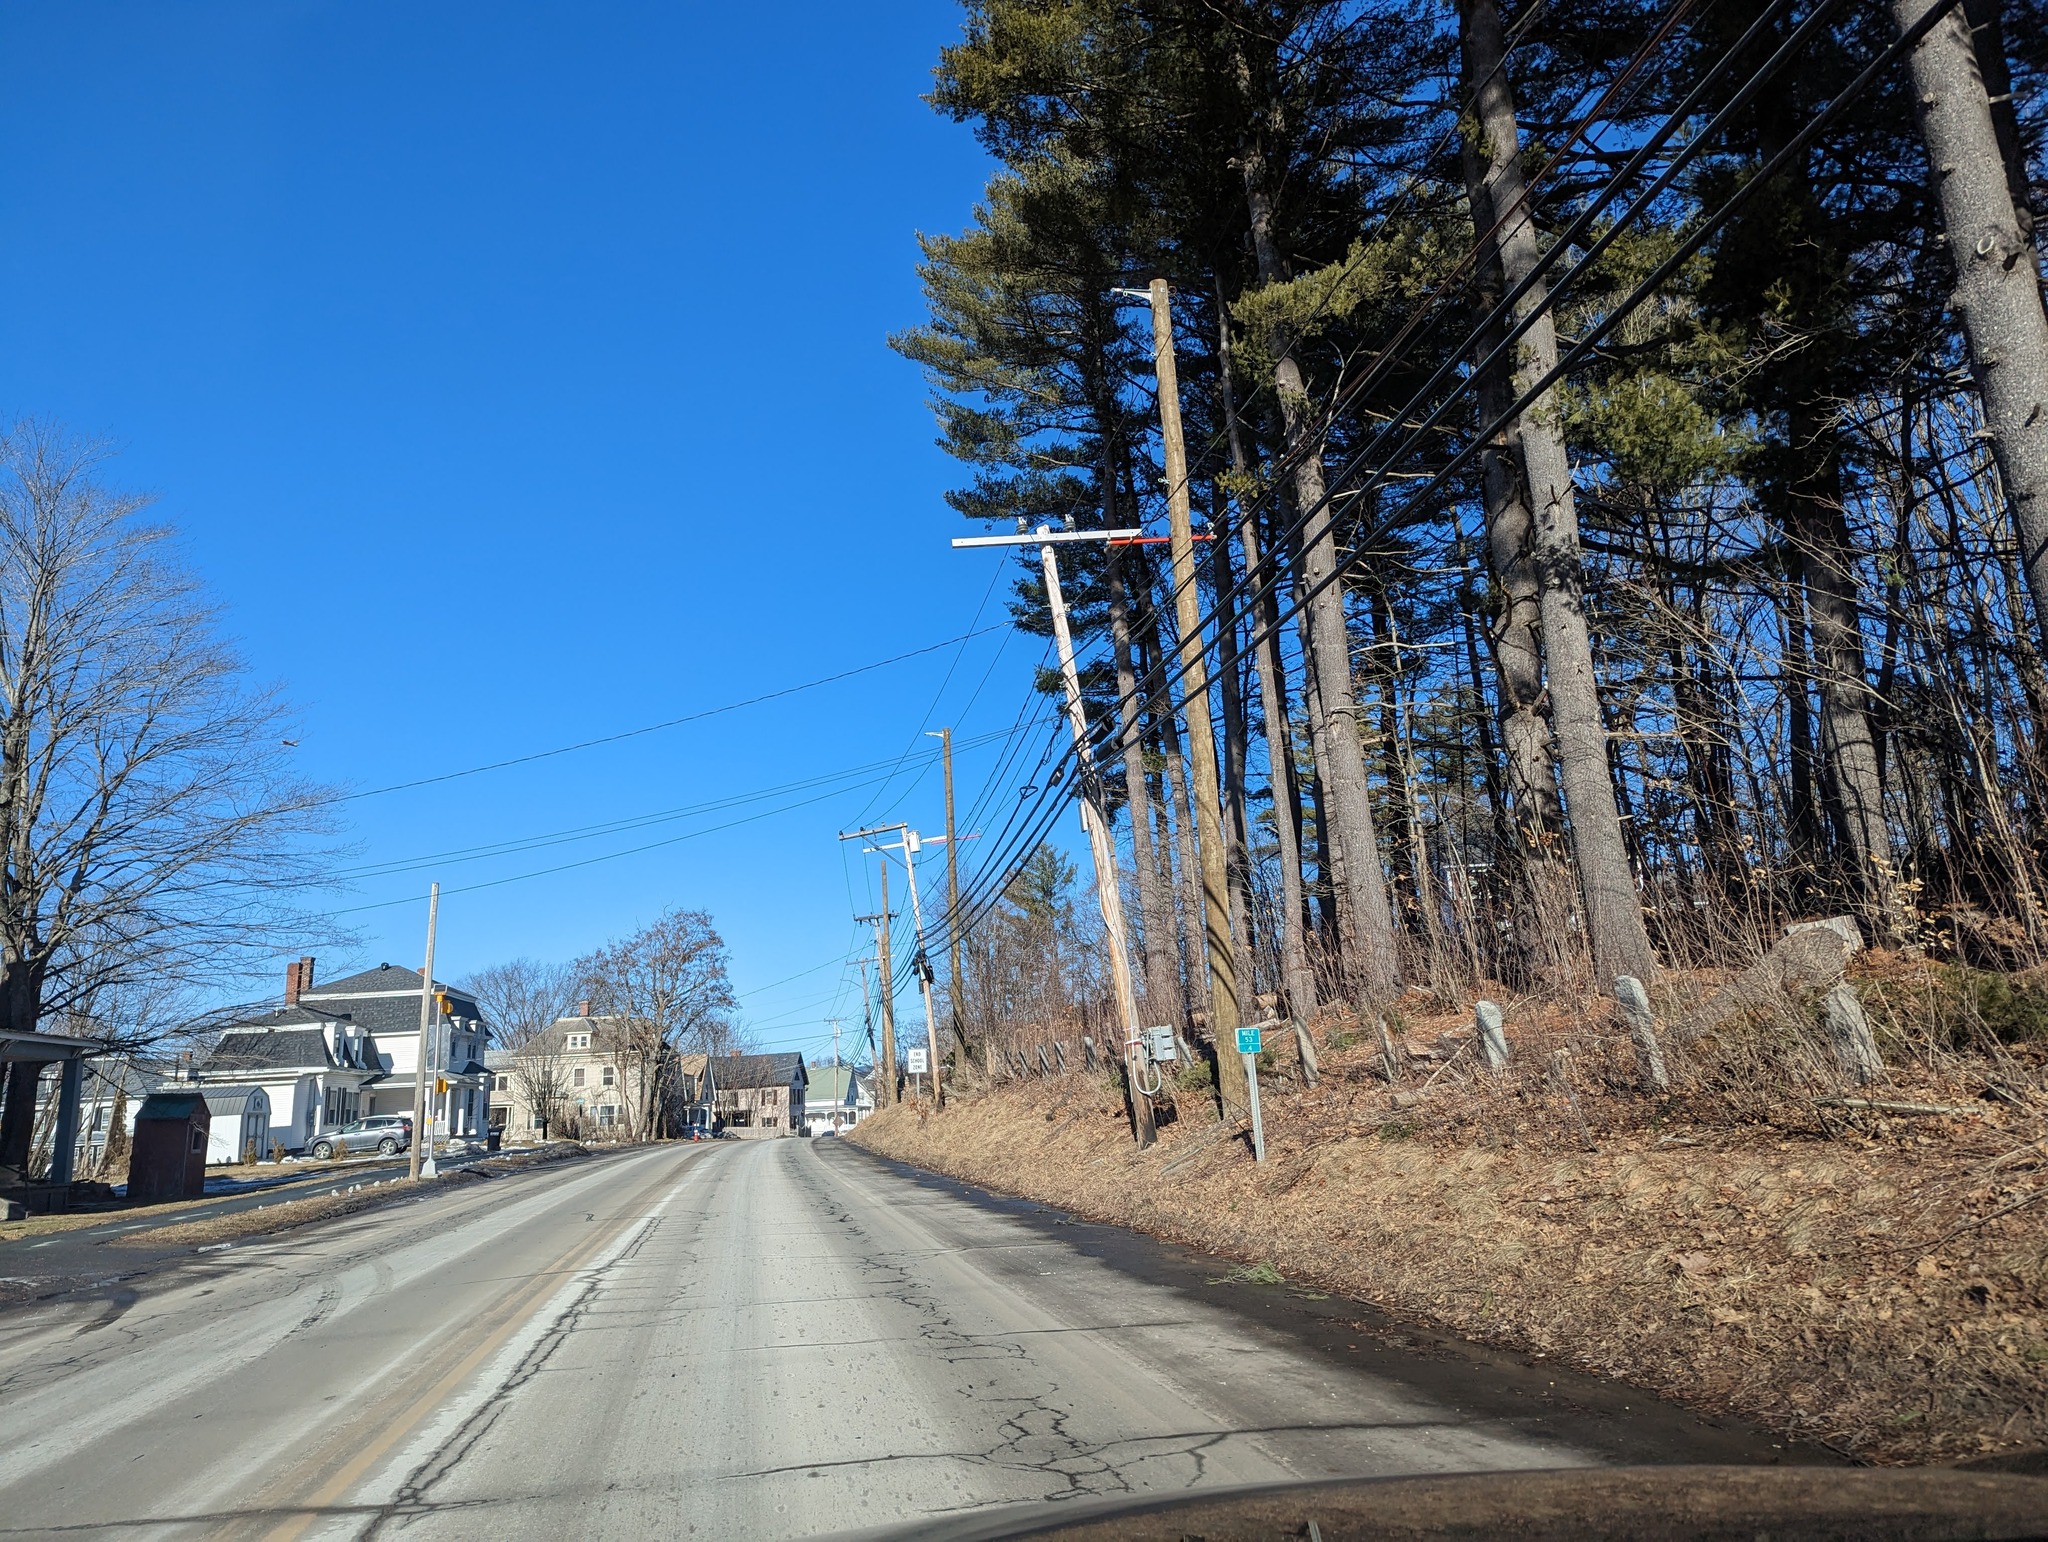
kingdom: Plantae
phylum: Tracheophyta
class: Pinopsida
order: Pinales
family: Pinaceae
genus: Pinus
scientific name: Pinus strobus
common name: Weymouth pine
